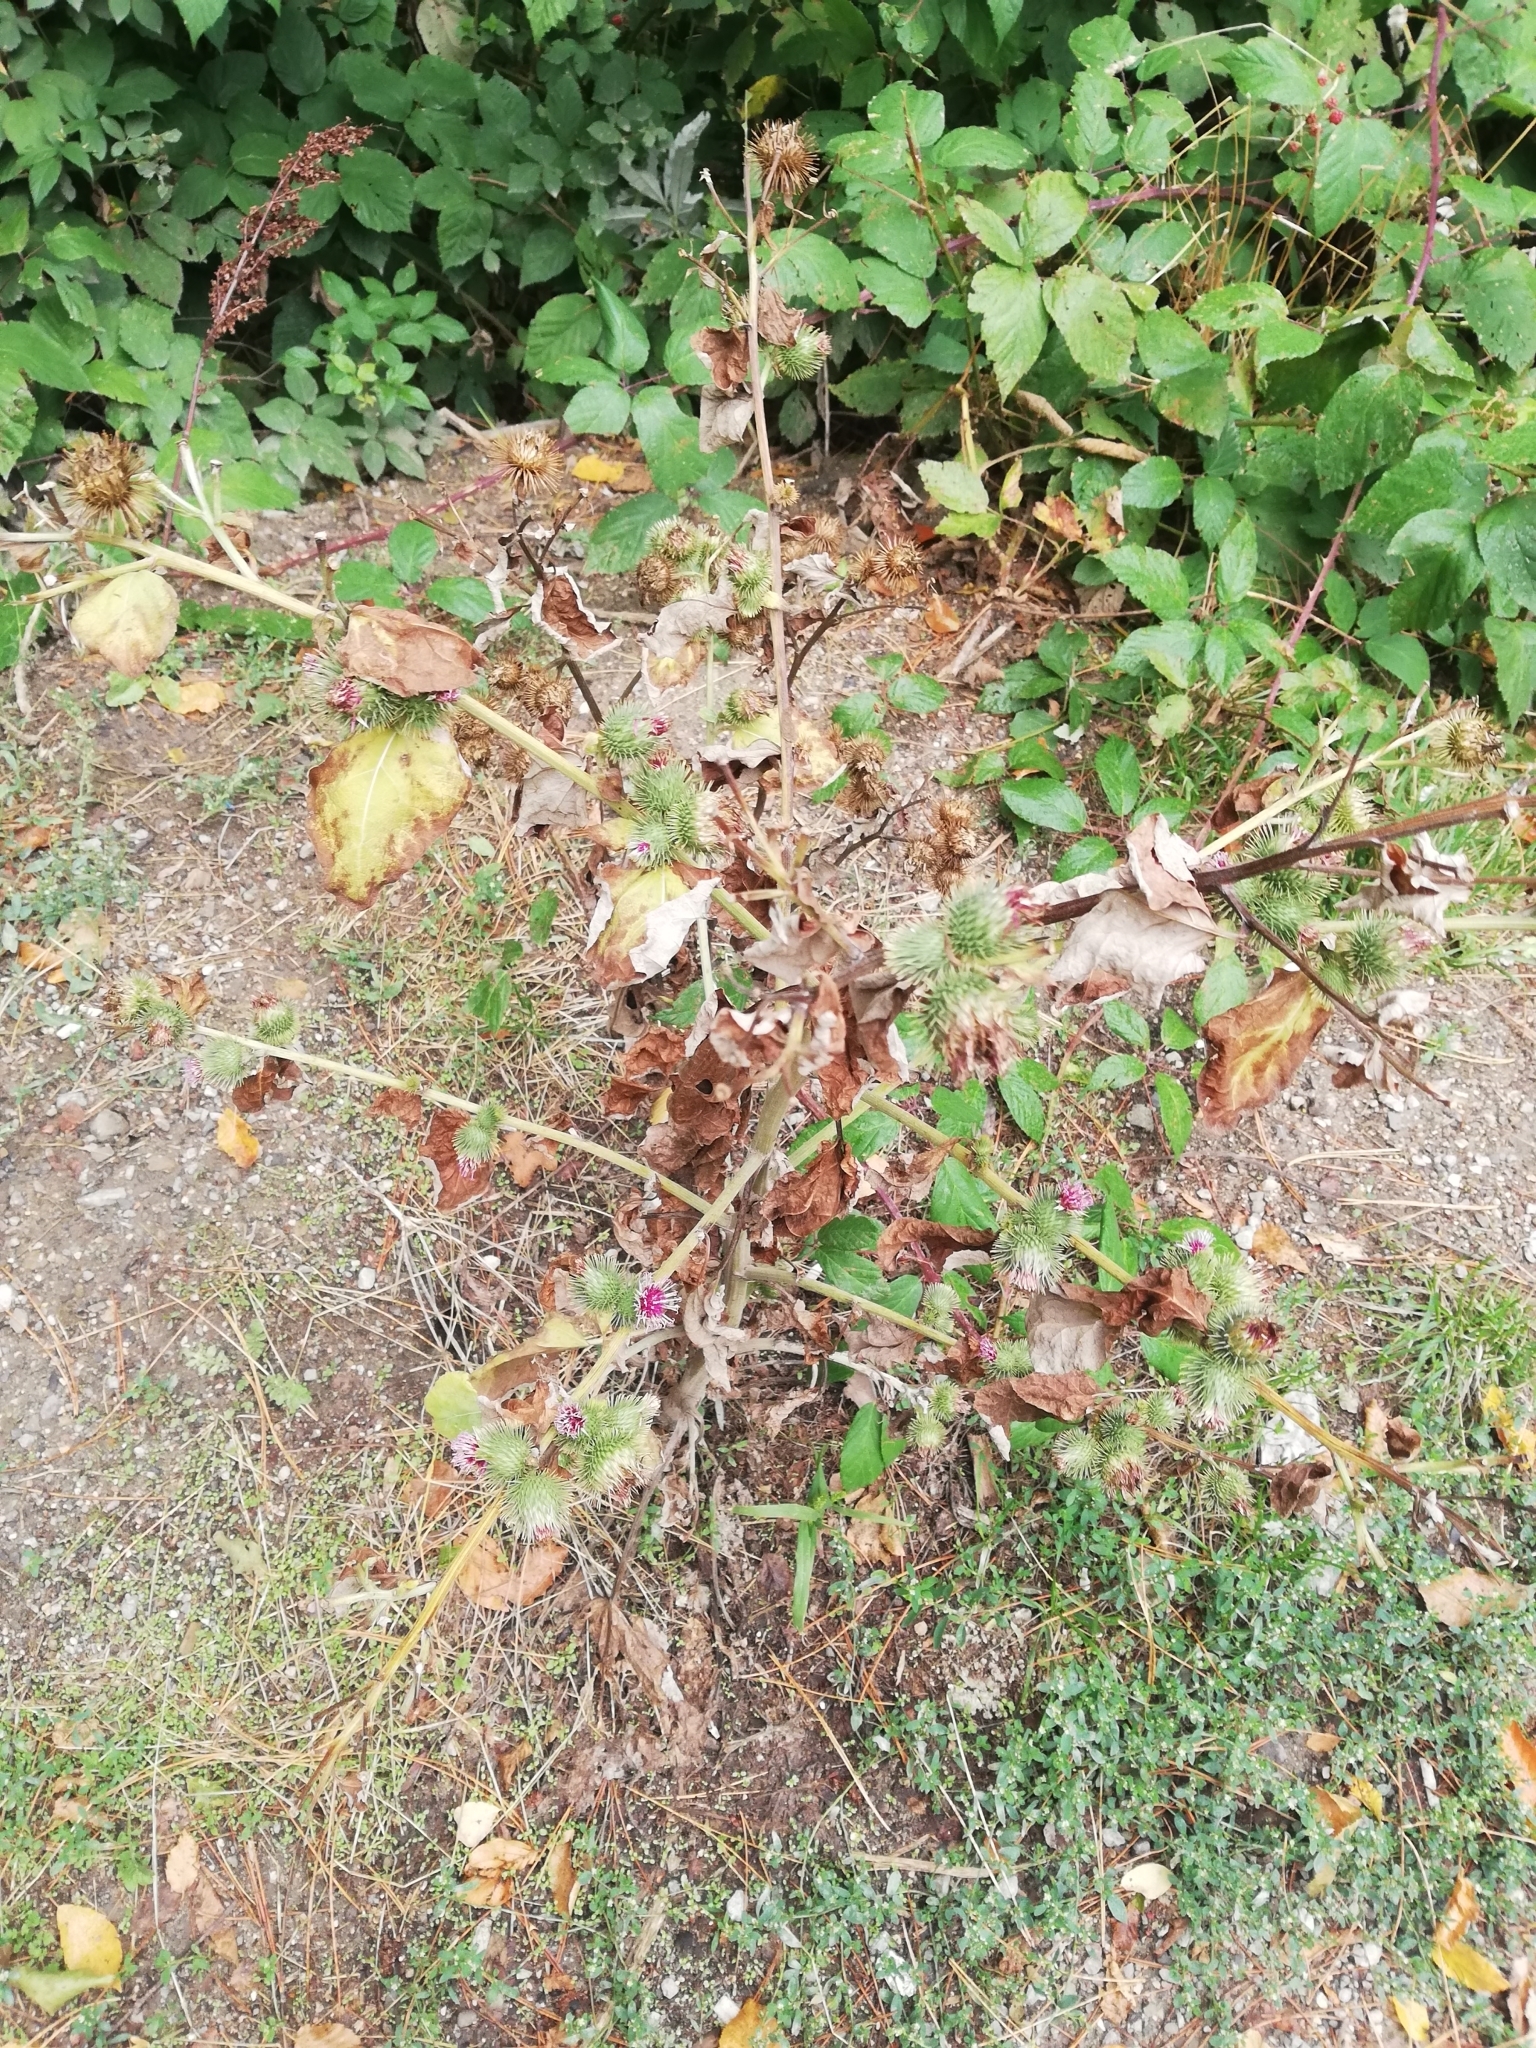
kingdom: Plantae
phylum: Tracheophyta
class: Magnoliopsida
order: Asterales
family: Asteraceae
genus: Arctium
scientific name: Arctium minus
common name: Lesser burdock
